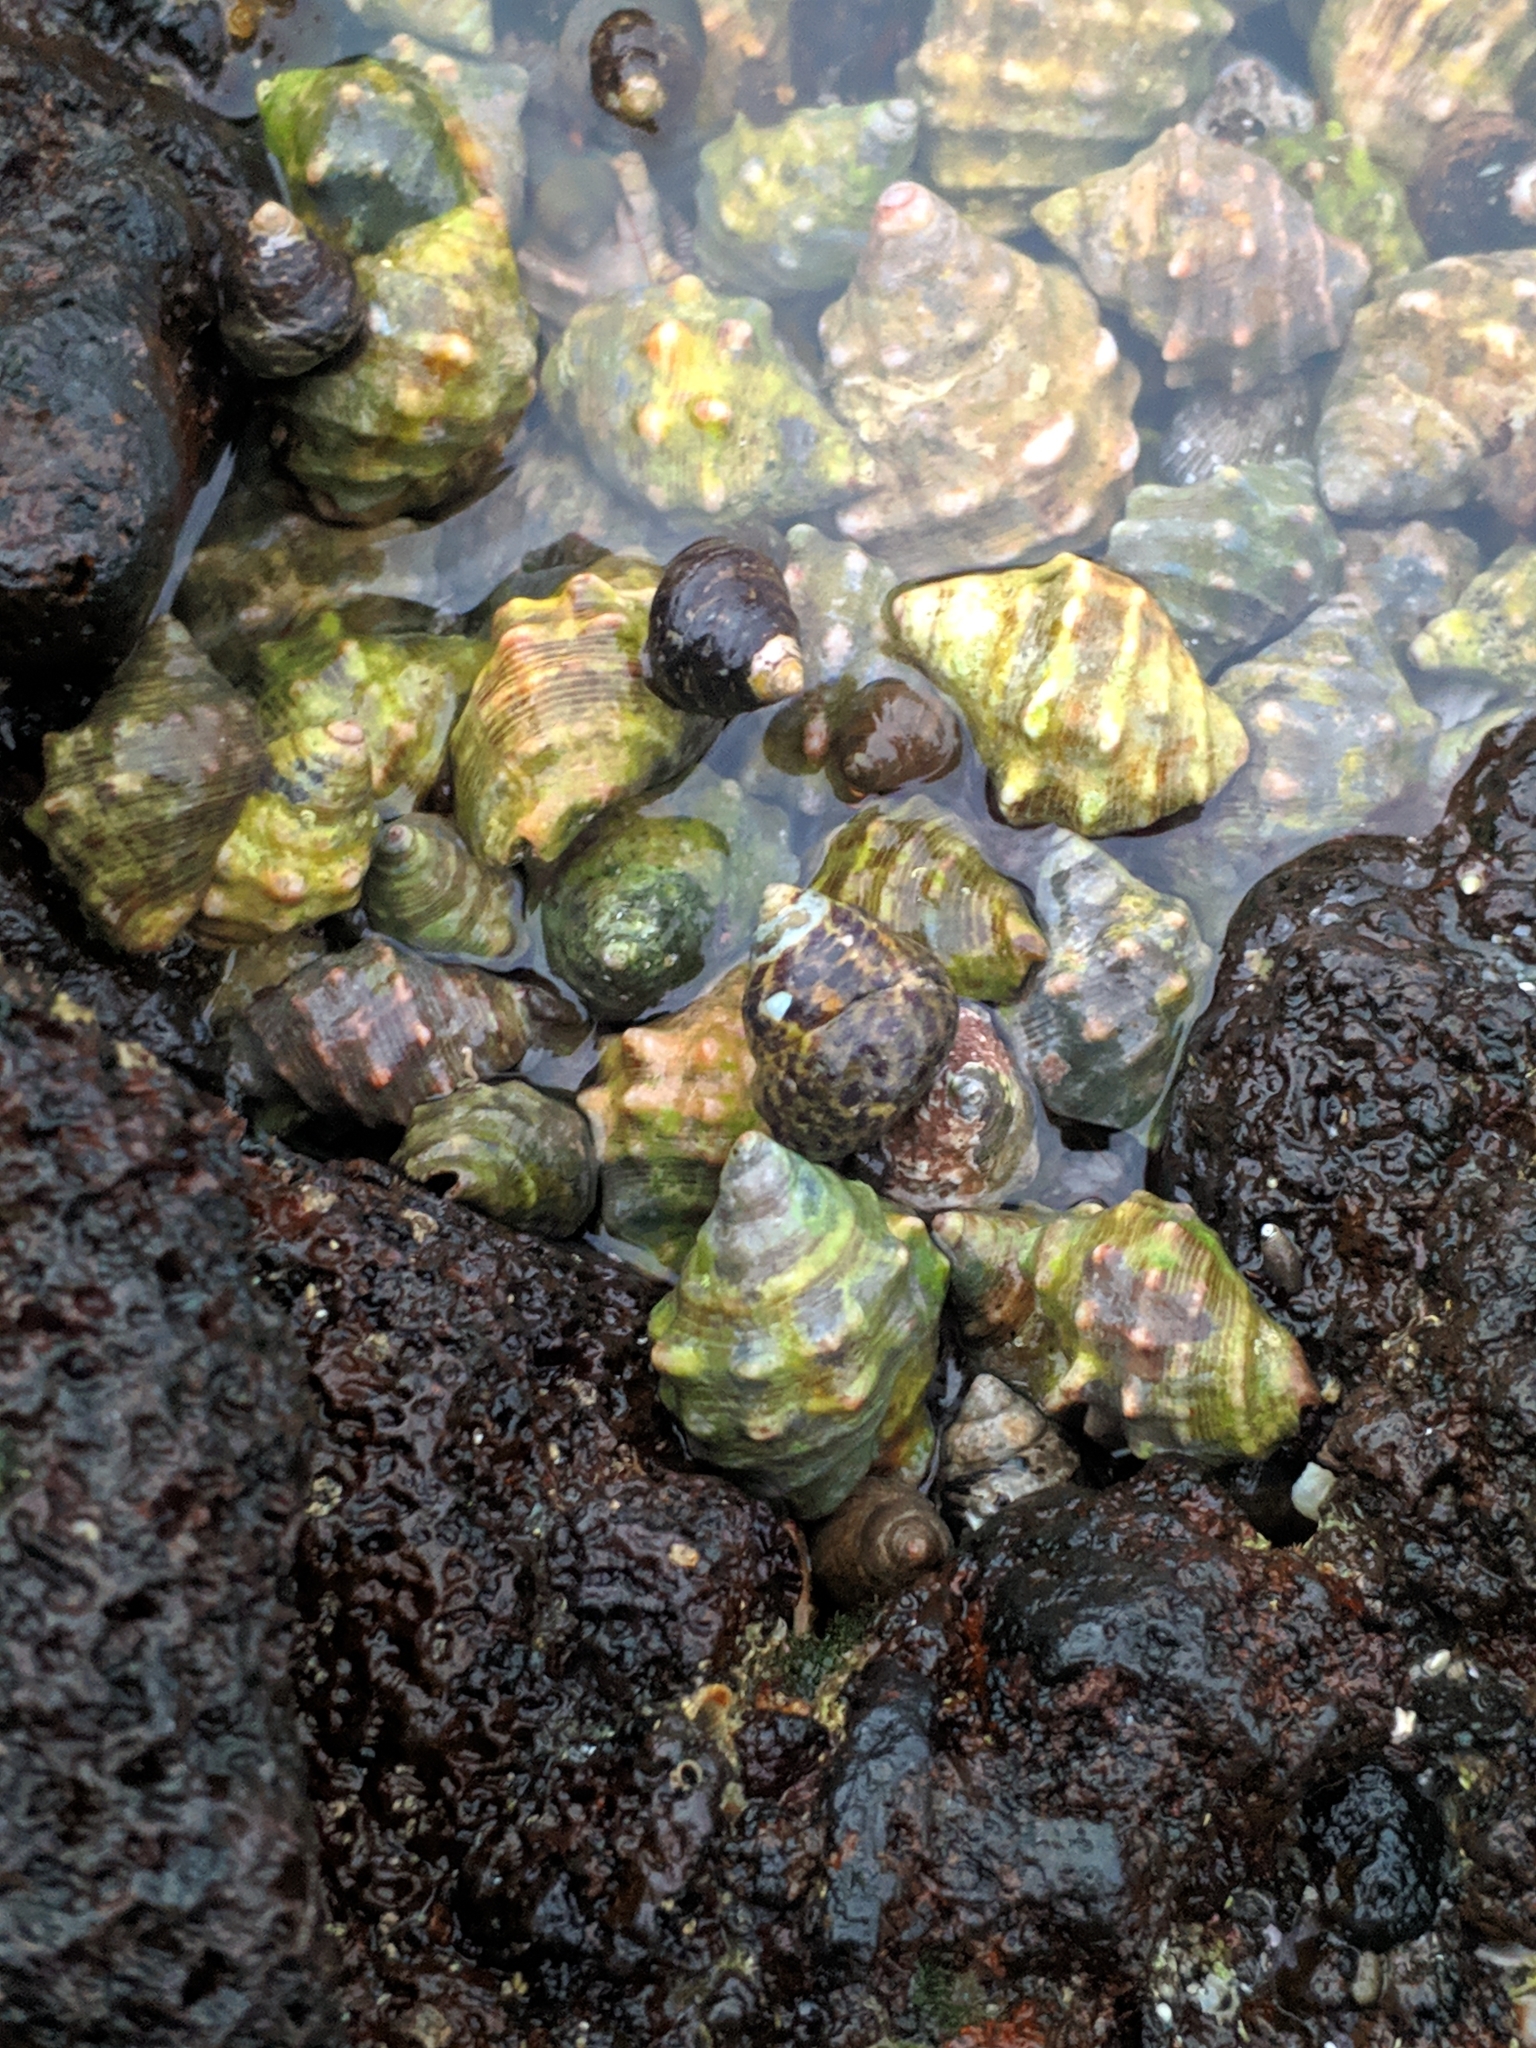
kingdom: Animalia
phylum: Mollusca
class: Gastropoda
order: Neogastropoda
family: Muricidae
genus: Stramonita
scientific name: Stramonita haemastoma
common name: Florida dog winkle
